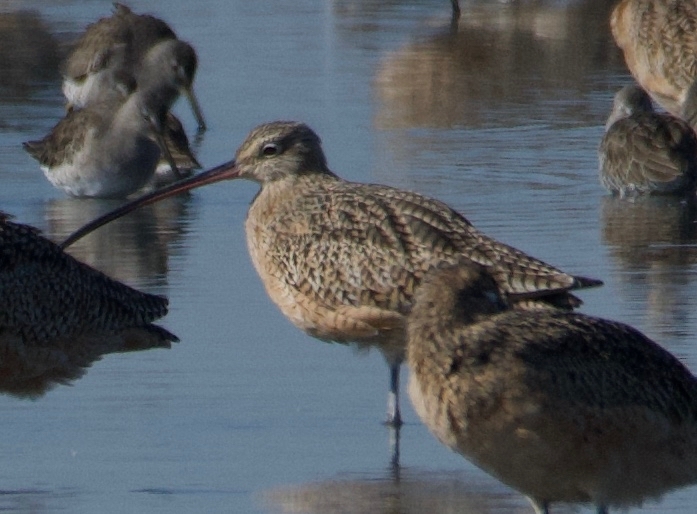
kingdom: Animalia
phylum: Chordata
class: Aves
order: Charadriiformes
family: Scolopacidae
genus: Numenius
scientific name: Numenius americanus
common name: Long-billed curlew
